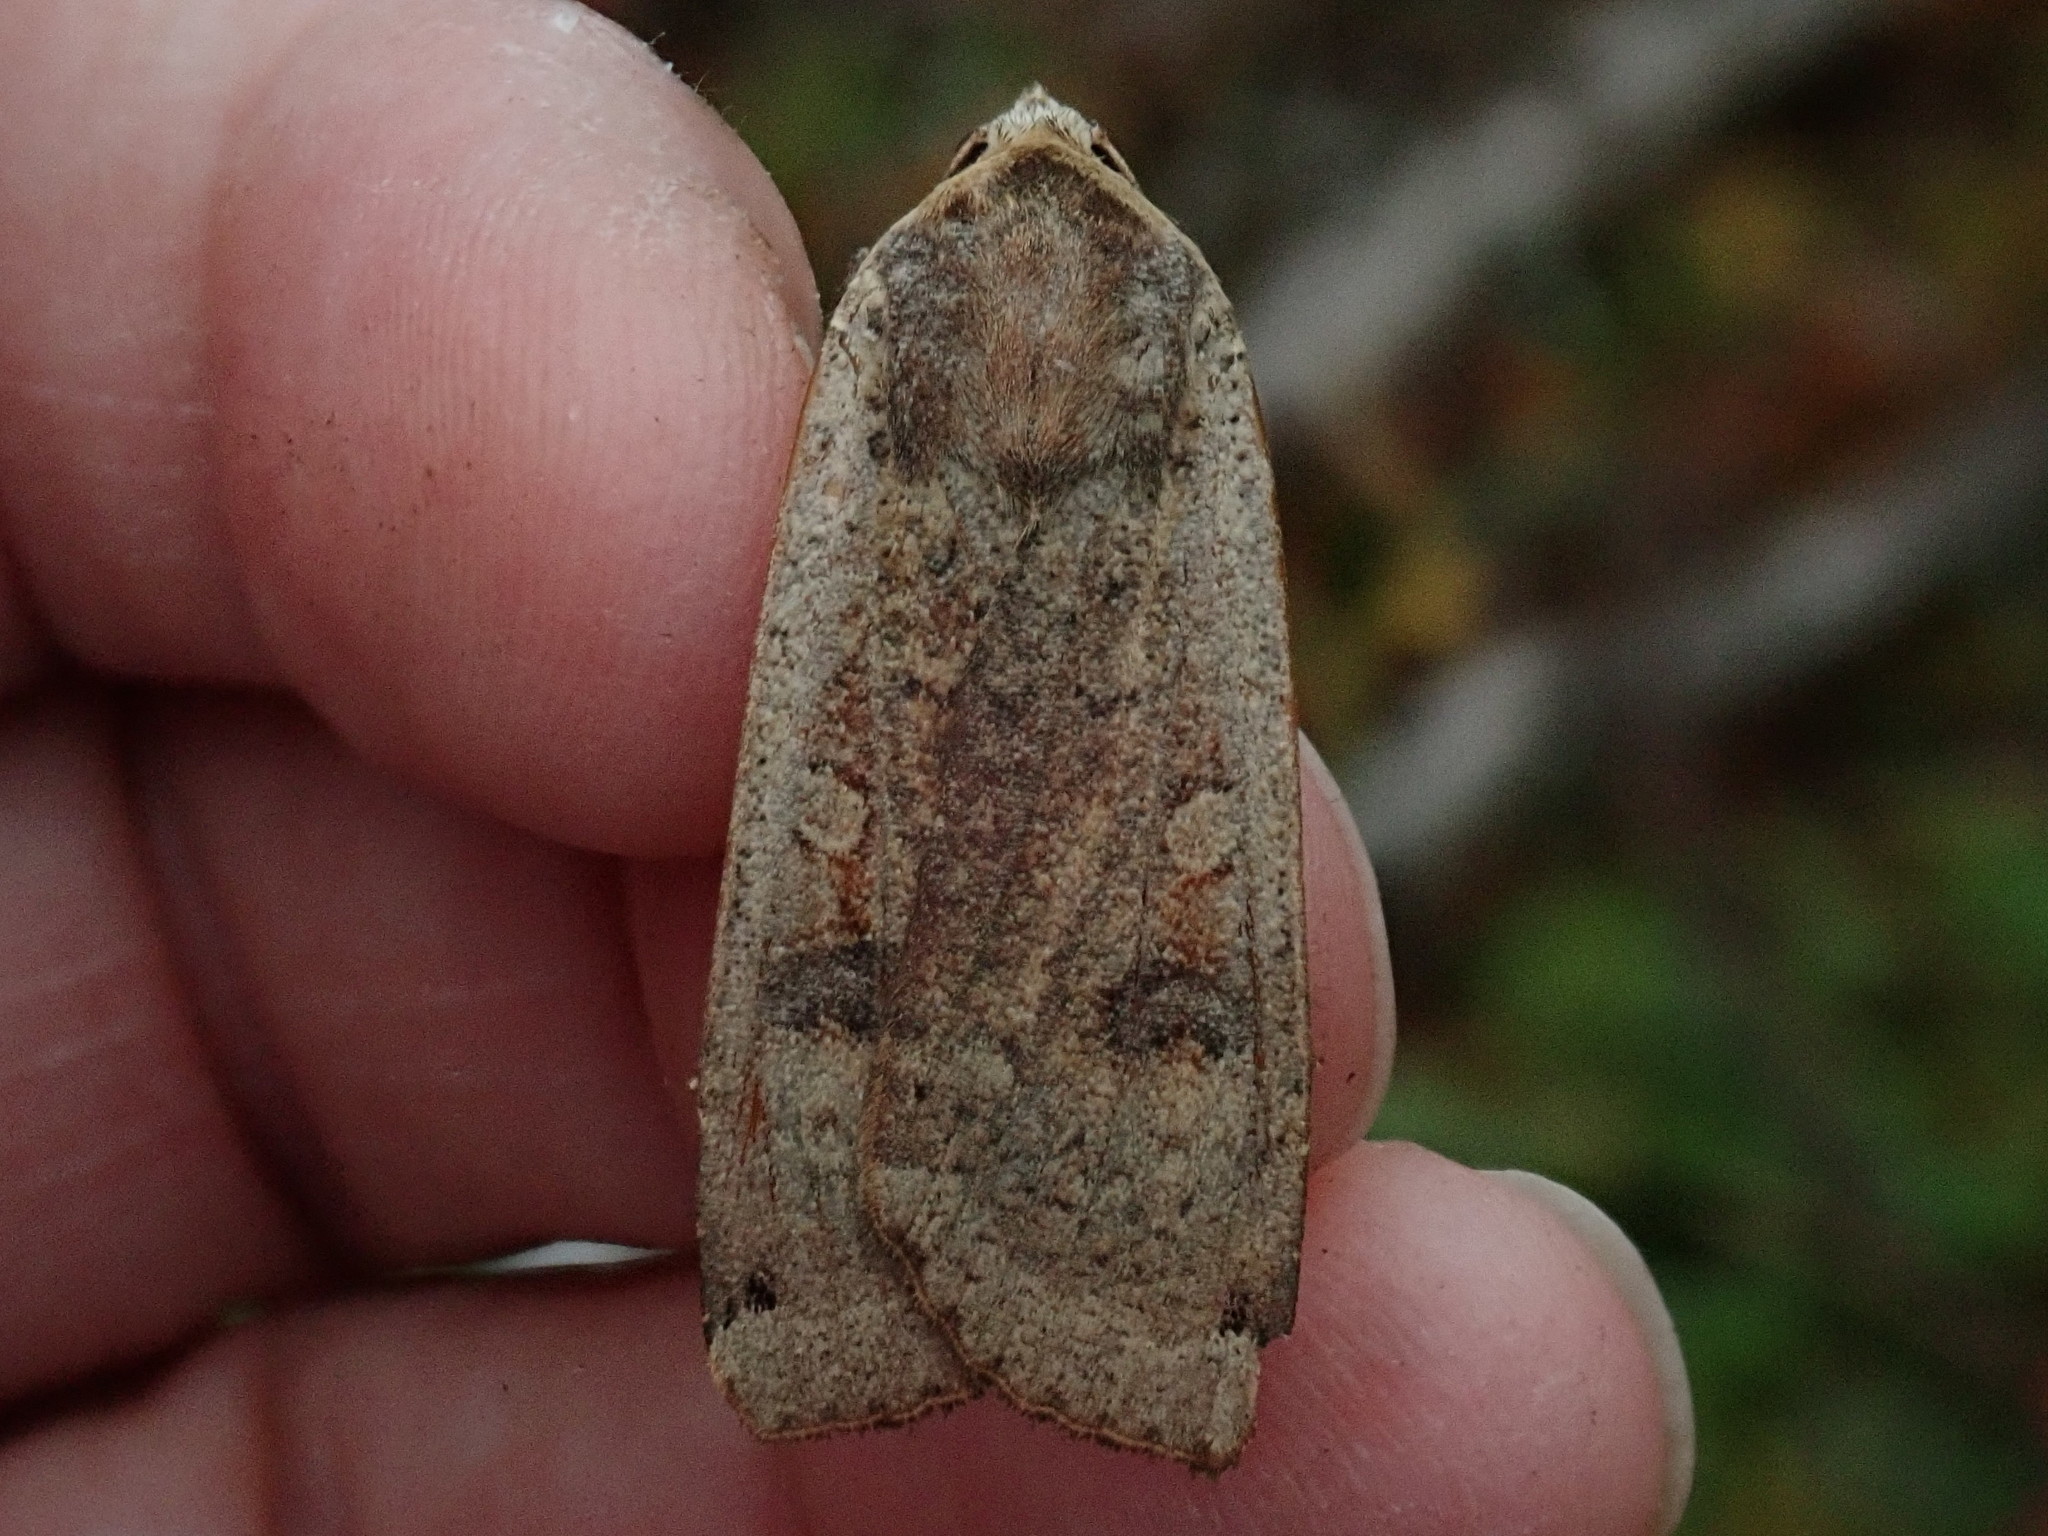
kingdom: Animalia
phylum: Arthropoda
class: Insecta
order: Lepidoptera
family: Noctuidae
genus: Noctua
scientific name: Noctua pronuba
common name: Large yellow underwing
